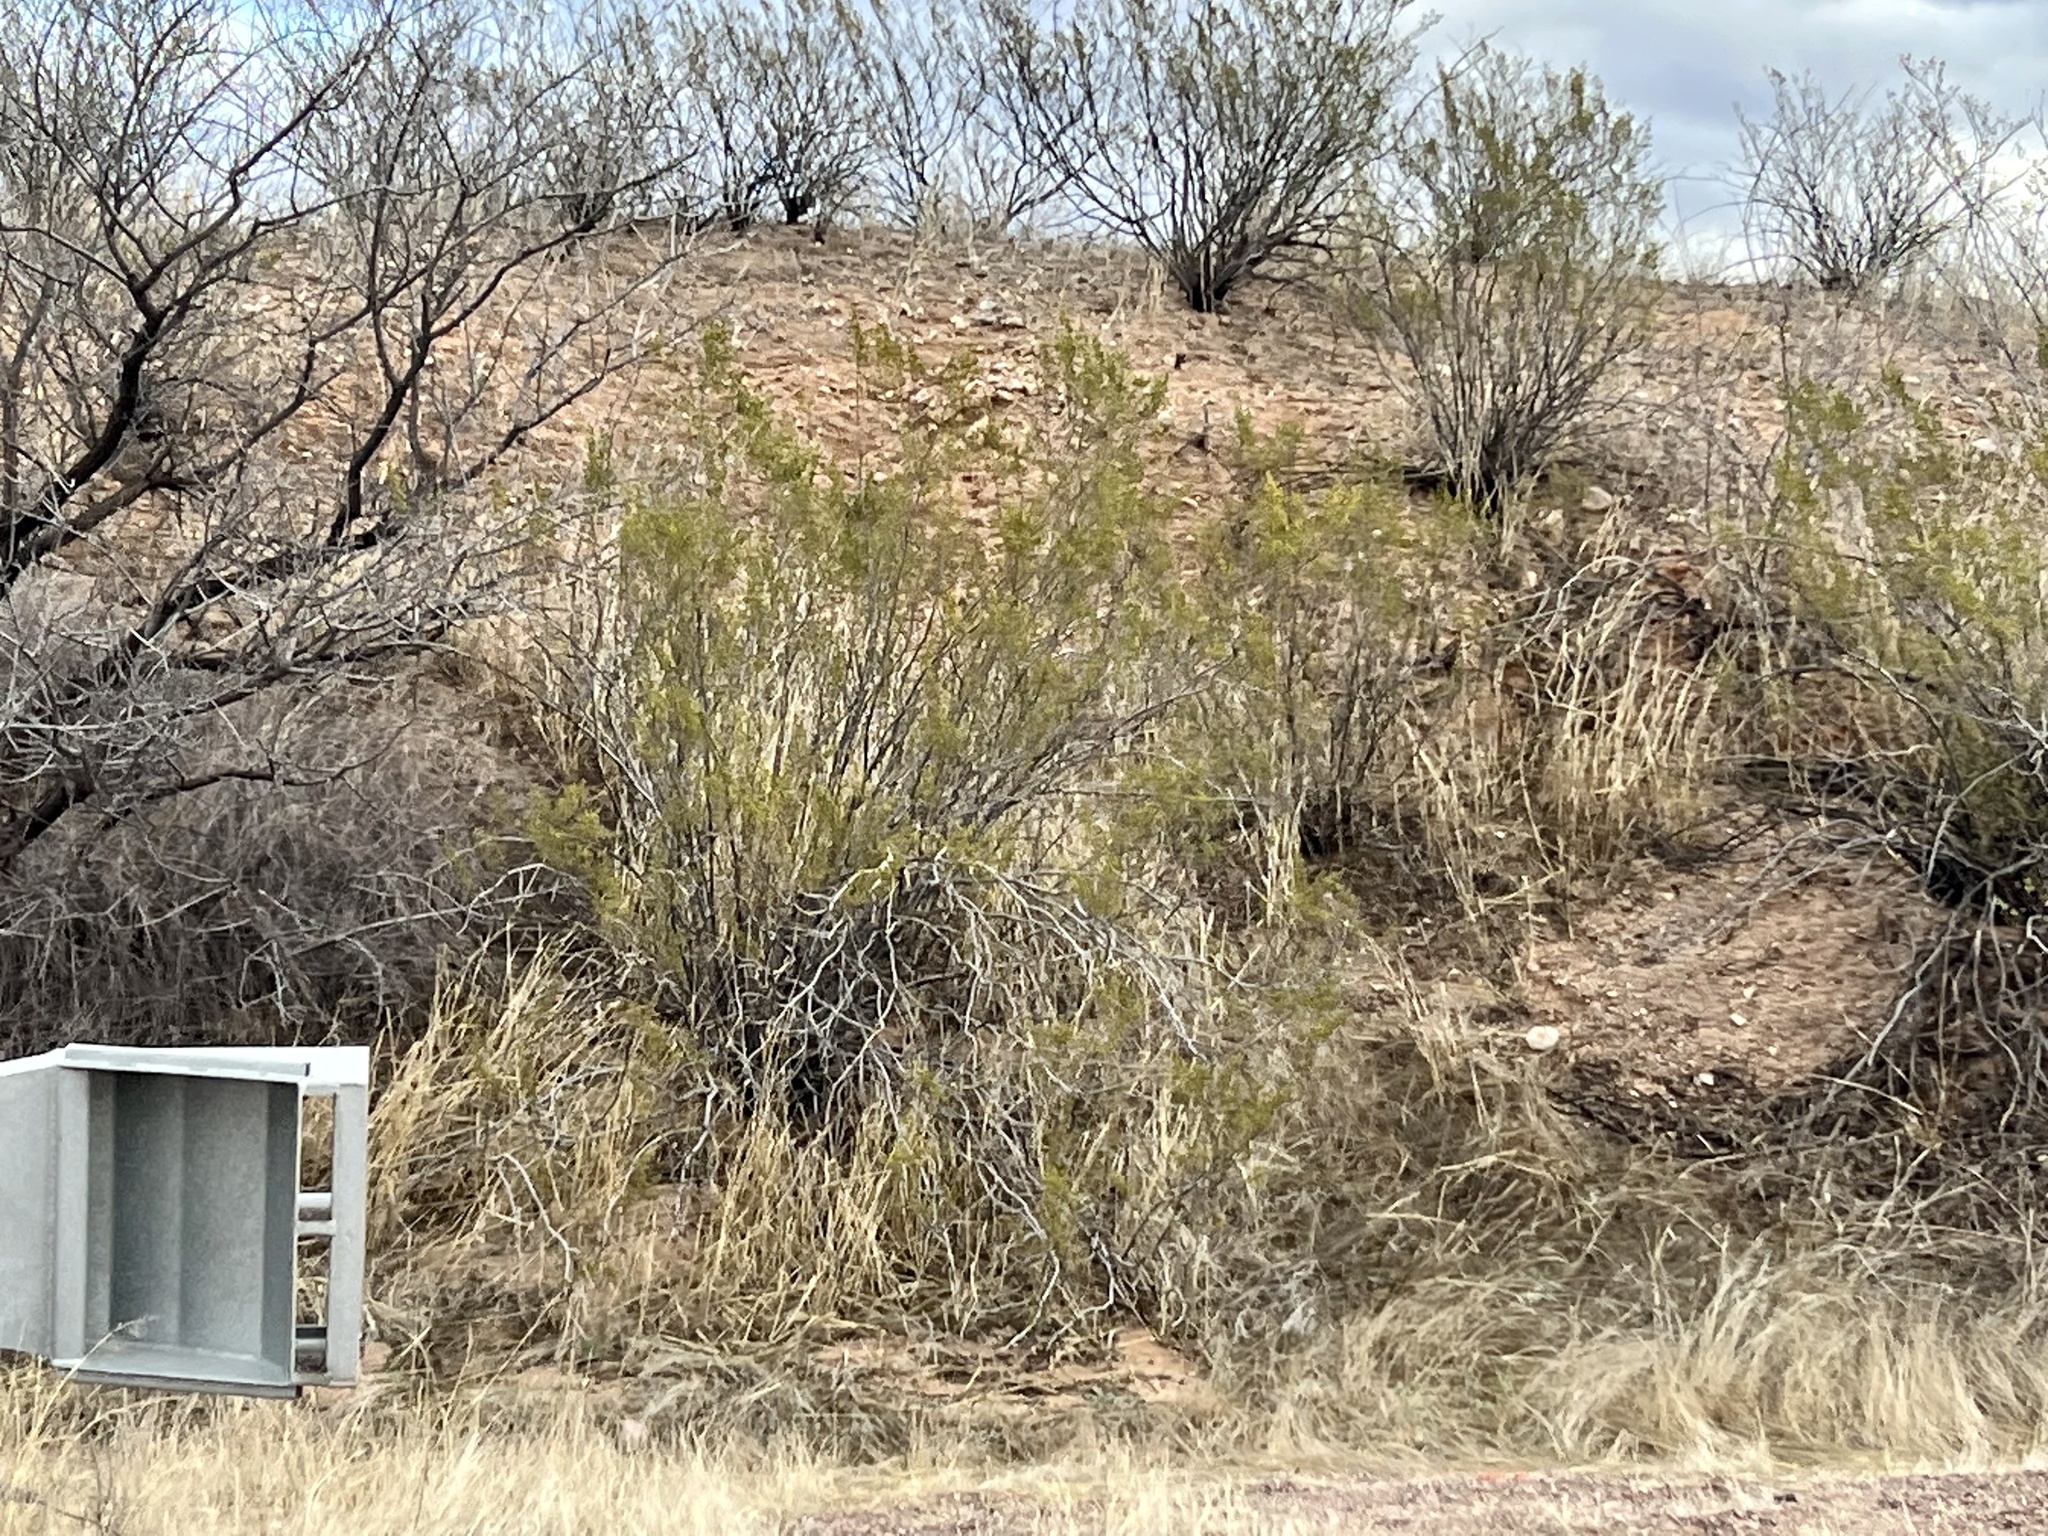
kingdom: Plantae
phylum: Tracheophyta
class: Magnoliopsida
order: Zygophyllales
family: Zygophyllaceae
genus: Larrea
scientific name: Larrea tridentata
